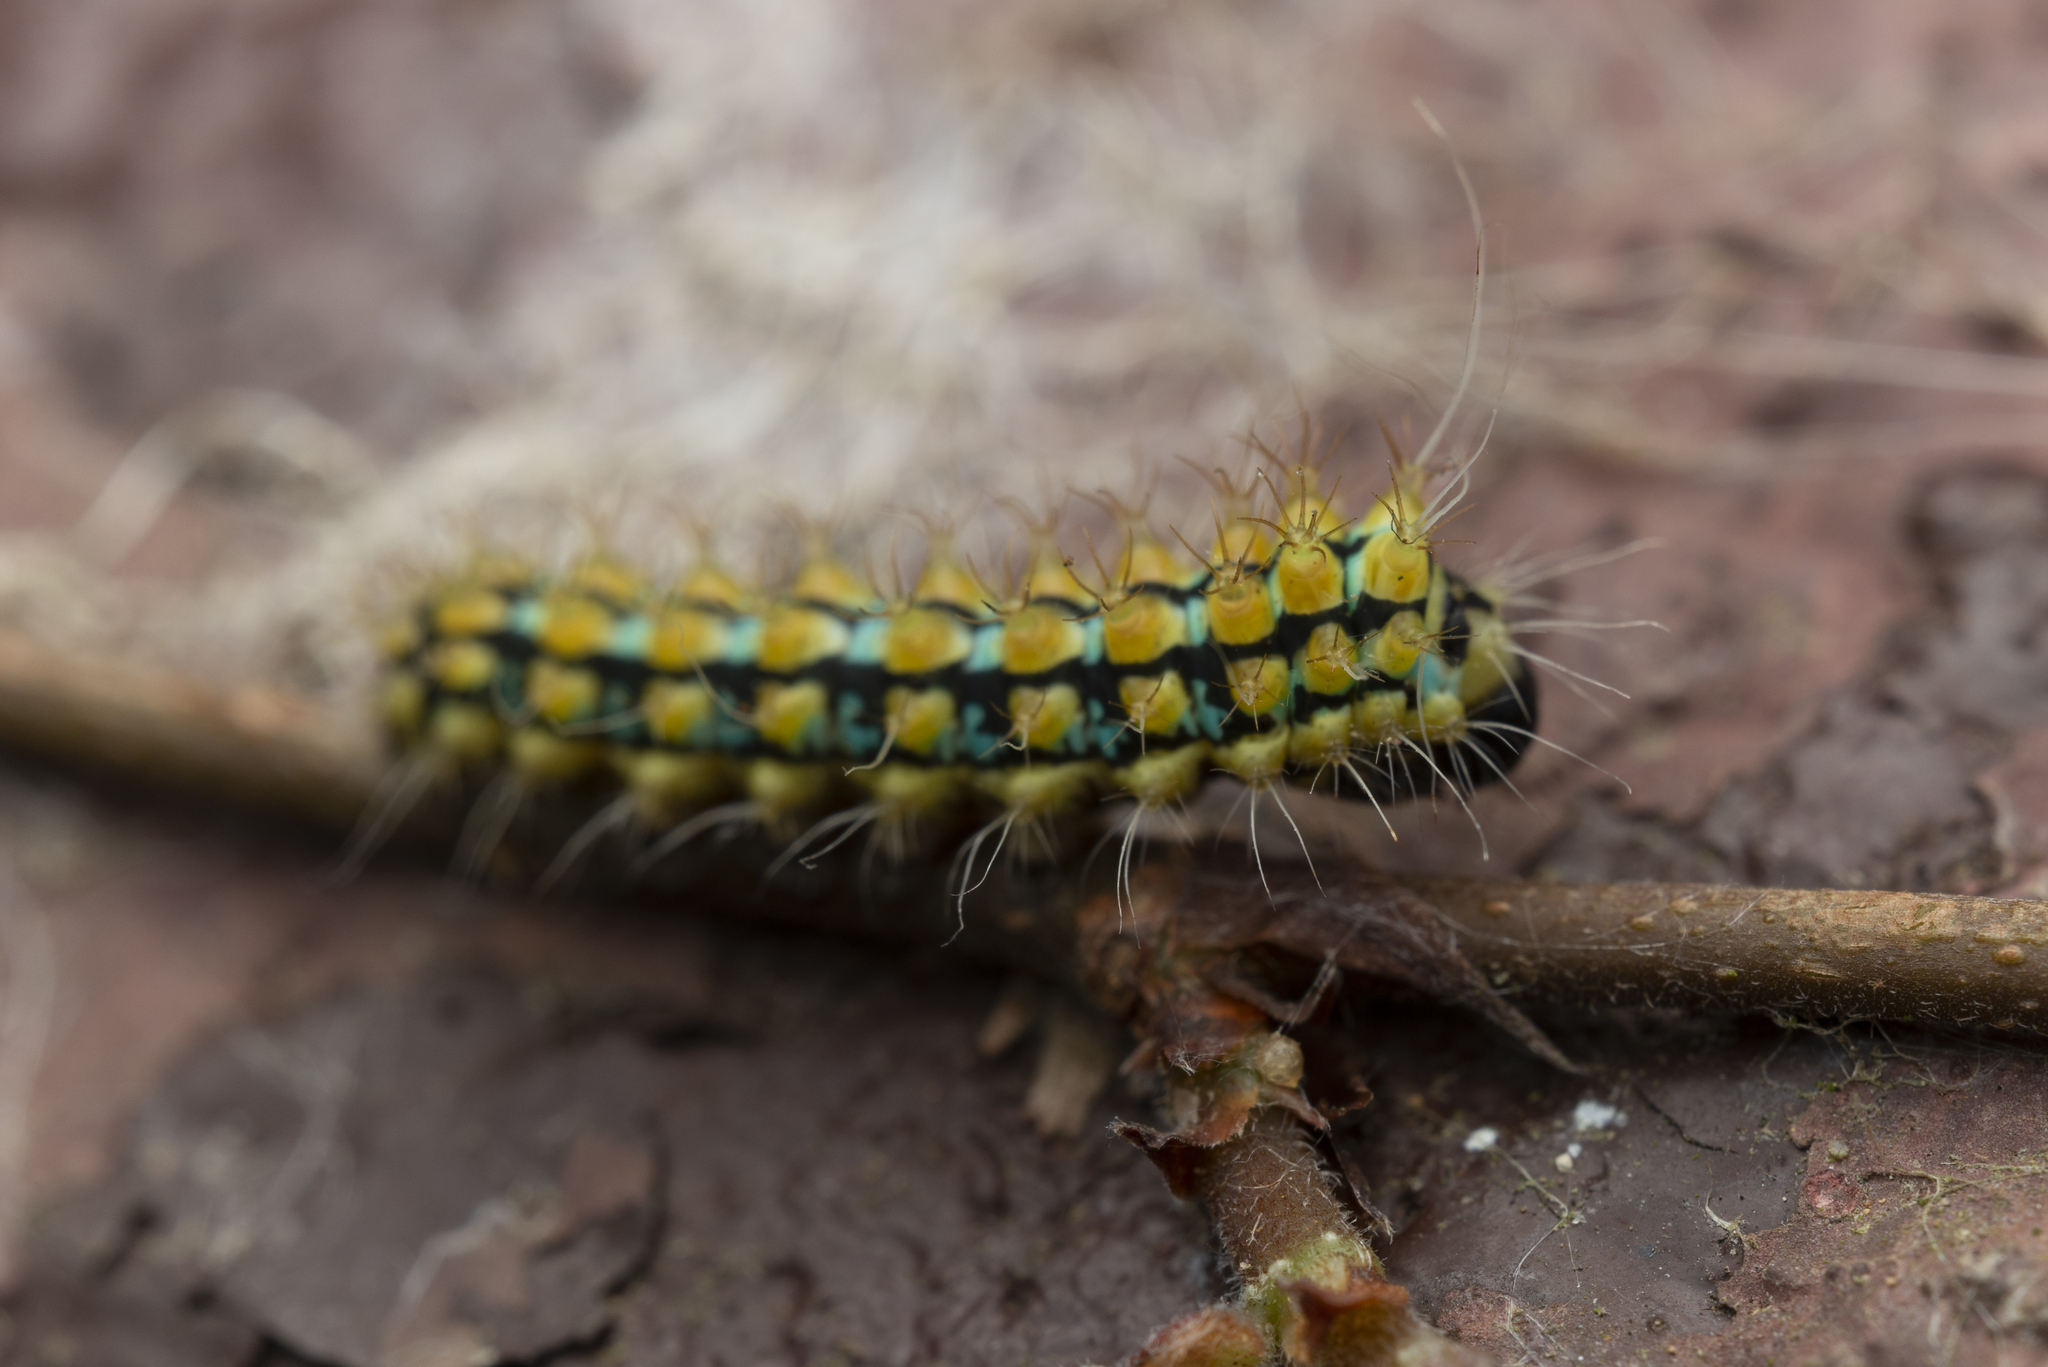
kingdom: Animalia
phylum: Arthropoda
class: Insecta
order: Lepidoptera
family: Saturniidae
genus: Saturnia
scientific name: Saturnia pyretorum
